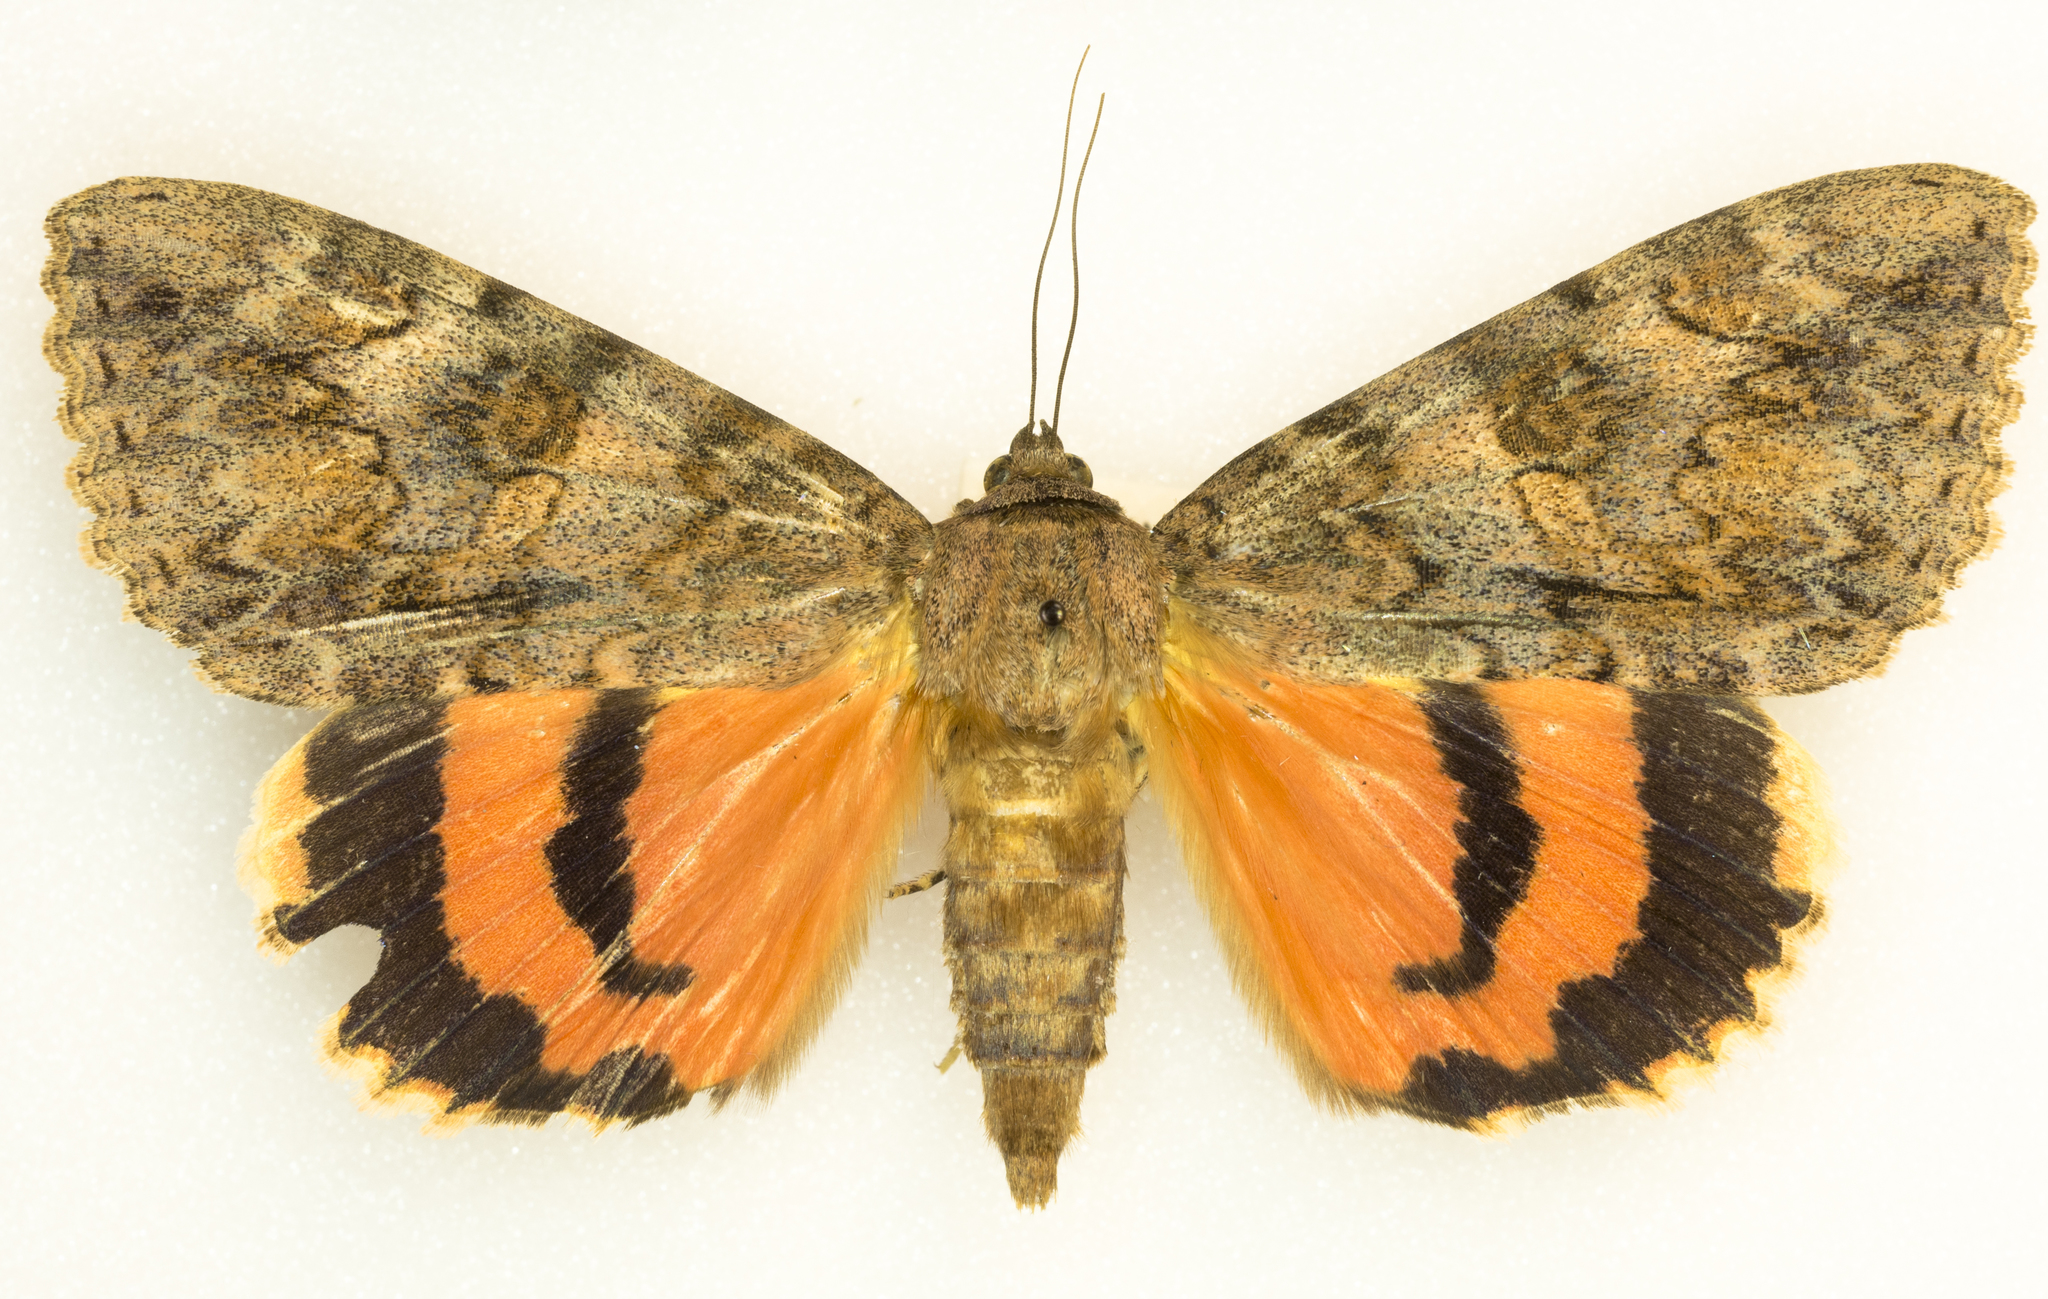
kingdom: Animalia
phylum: Arthropoda
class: Insecta
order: Lepidoptera
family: Erebidae
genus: Catocala
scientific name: Catocala junctura
